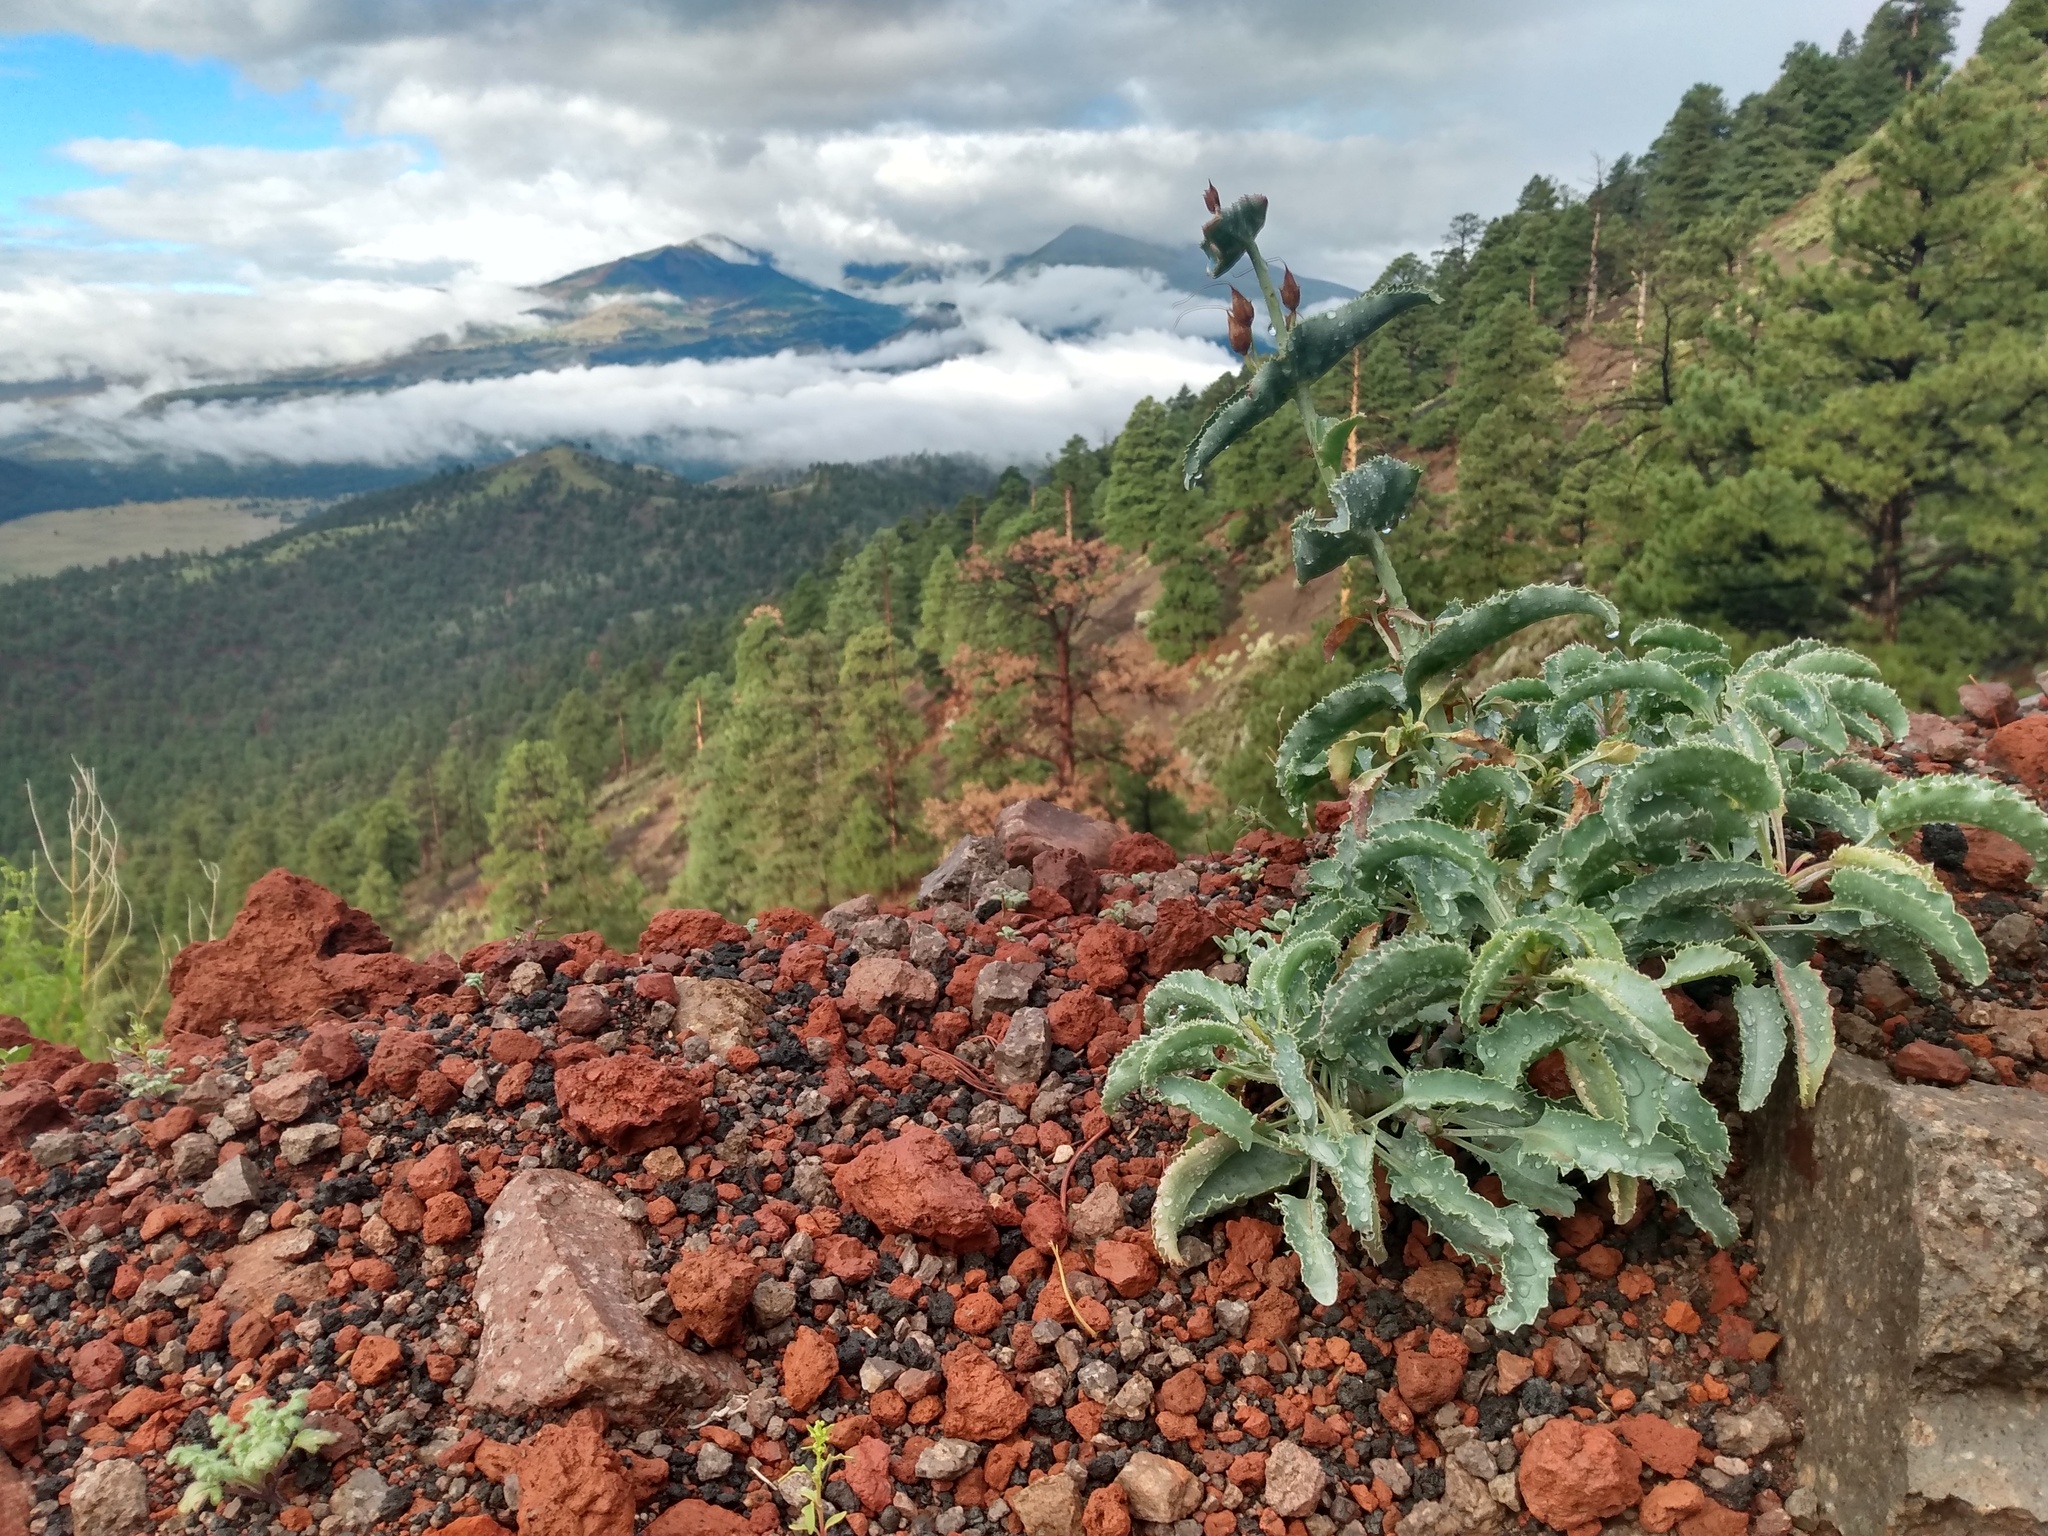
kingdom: Plantae
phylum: Tracheophyta
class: Magnoliopsida
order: Lamiales
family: Plantaginaceae
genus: Penstemon
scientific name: Penstemon clutei
